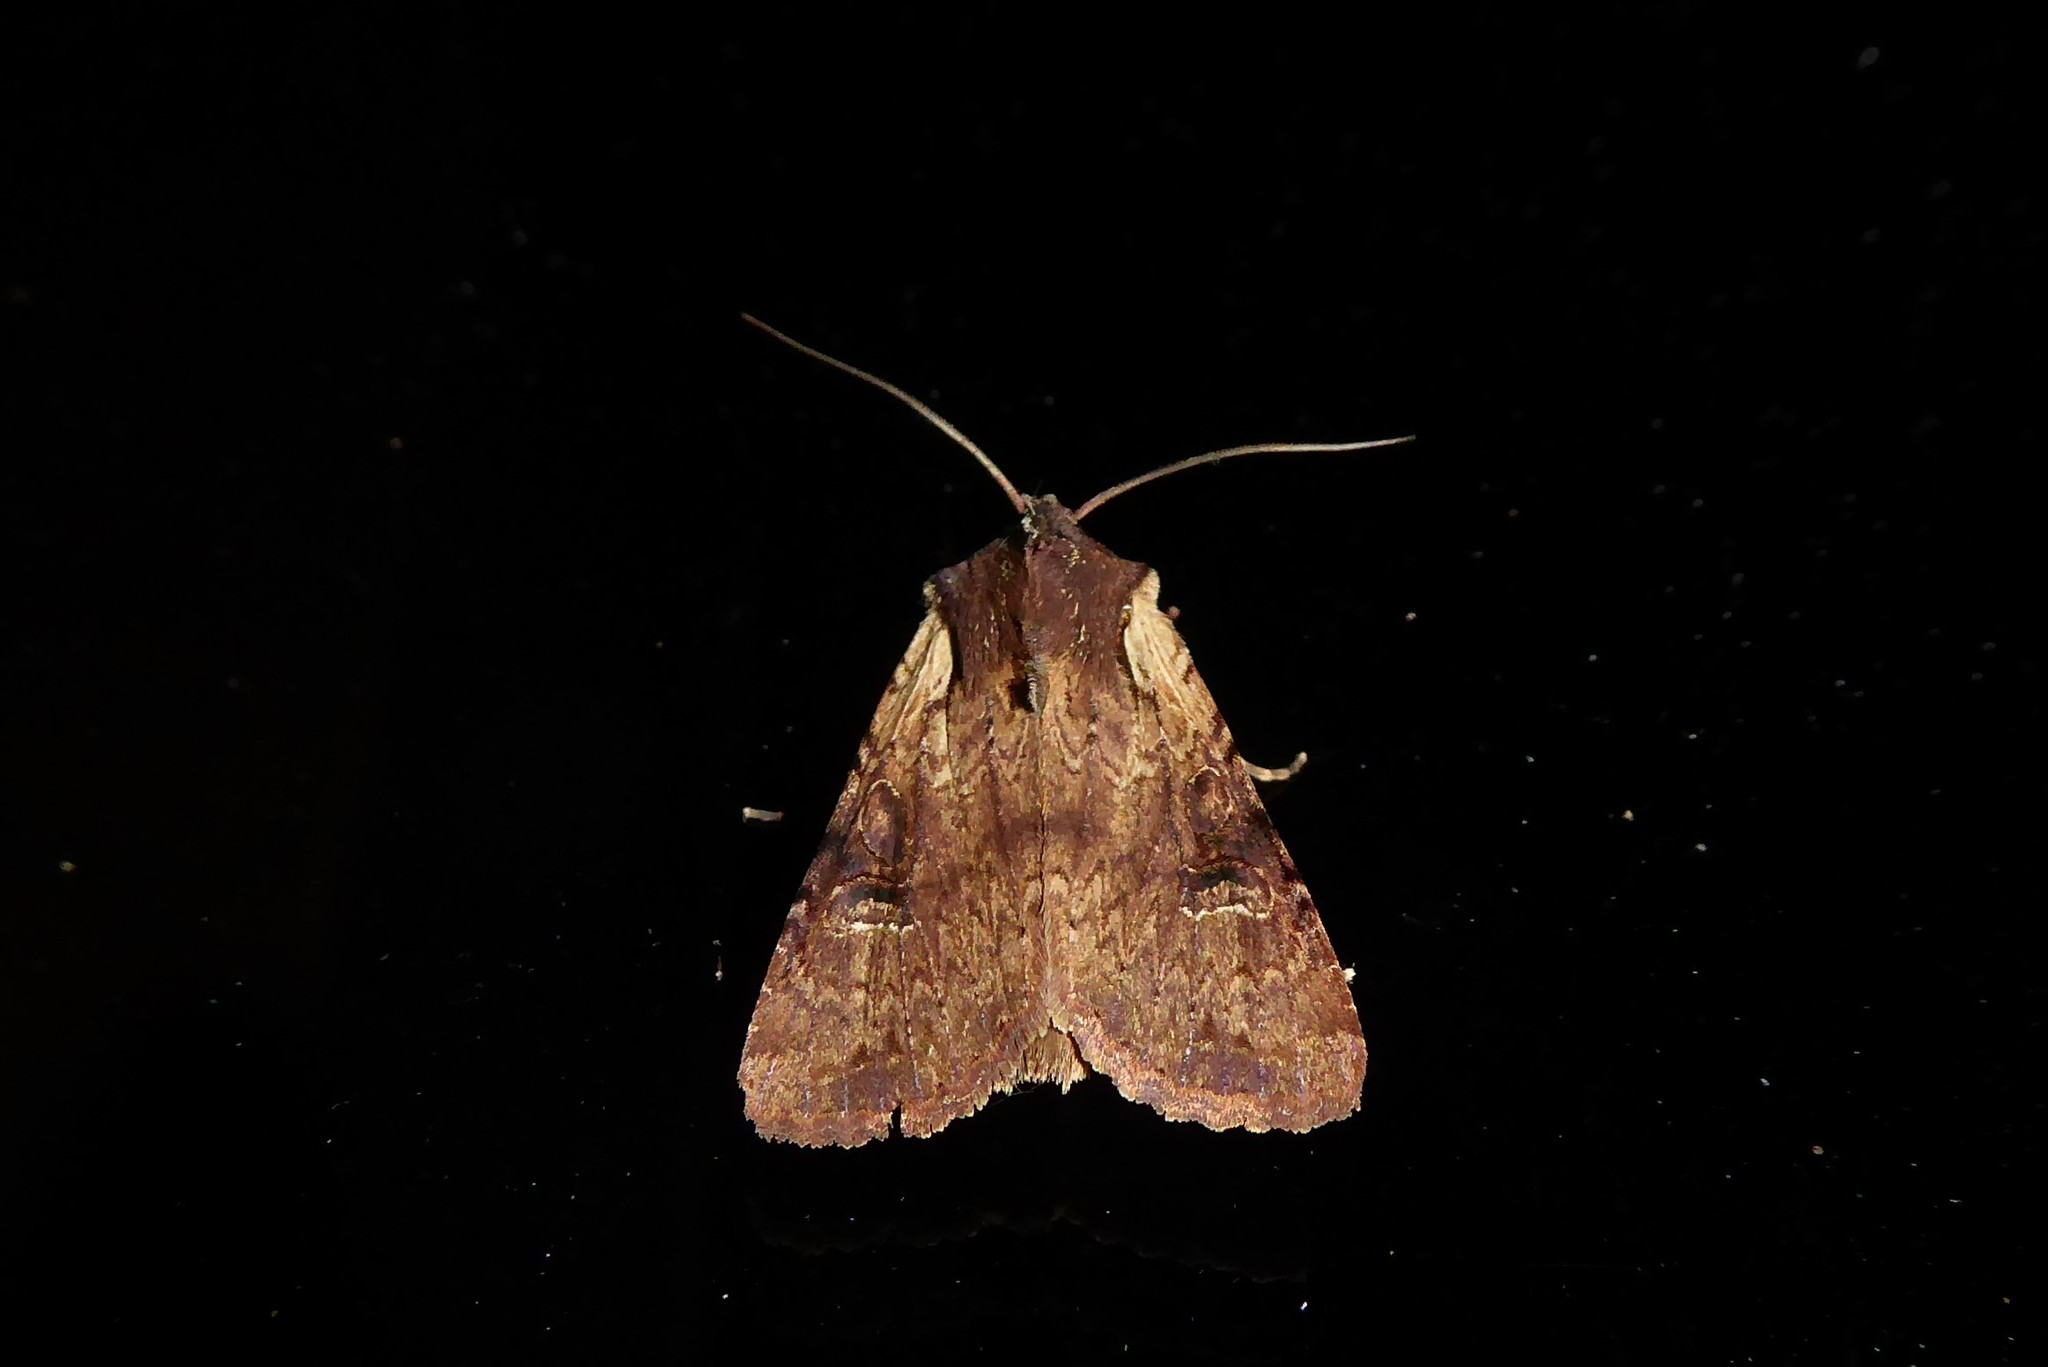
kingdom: Animalia
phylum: Arthropoda
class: Insecta
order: Lepidoptera
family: Noctuidae
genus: Ichneutica
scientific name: Ichneutica omoplaca
